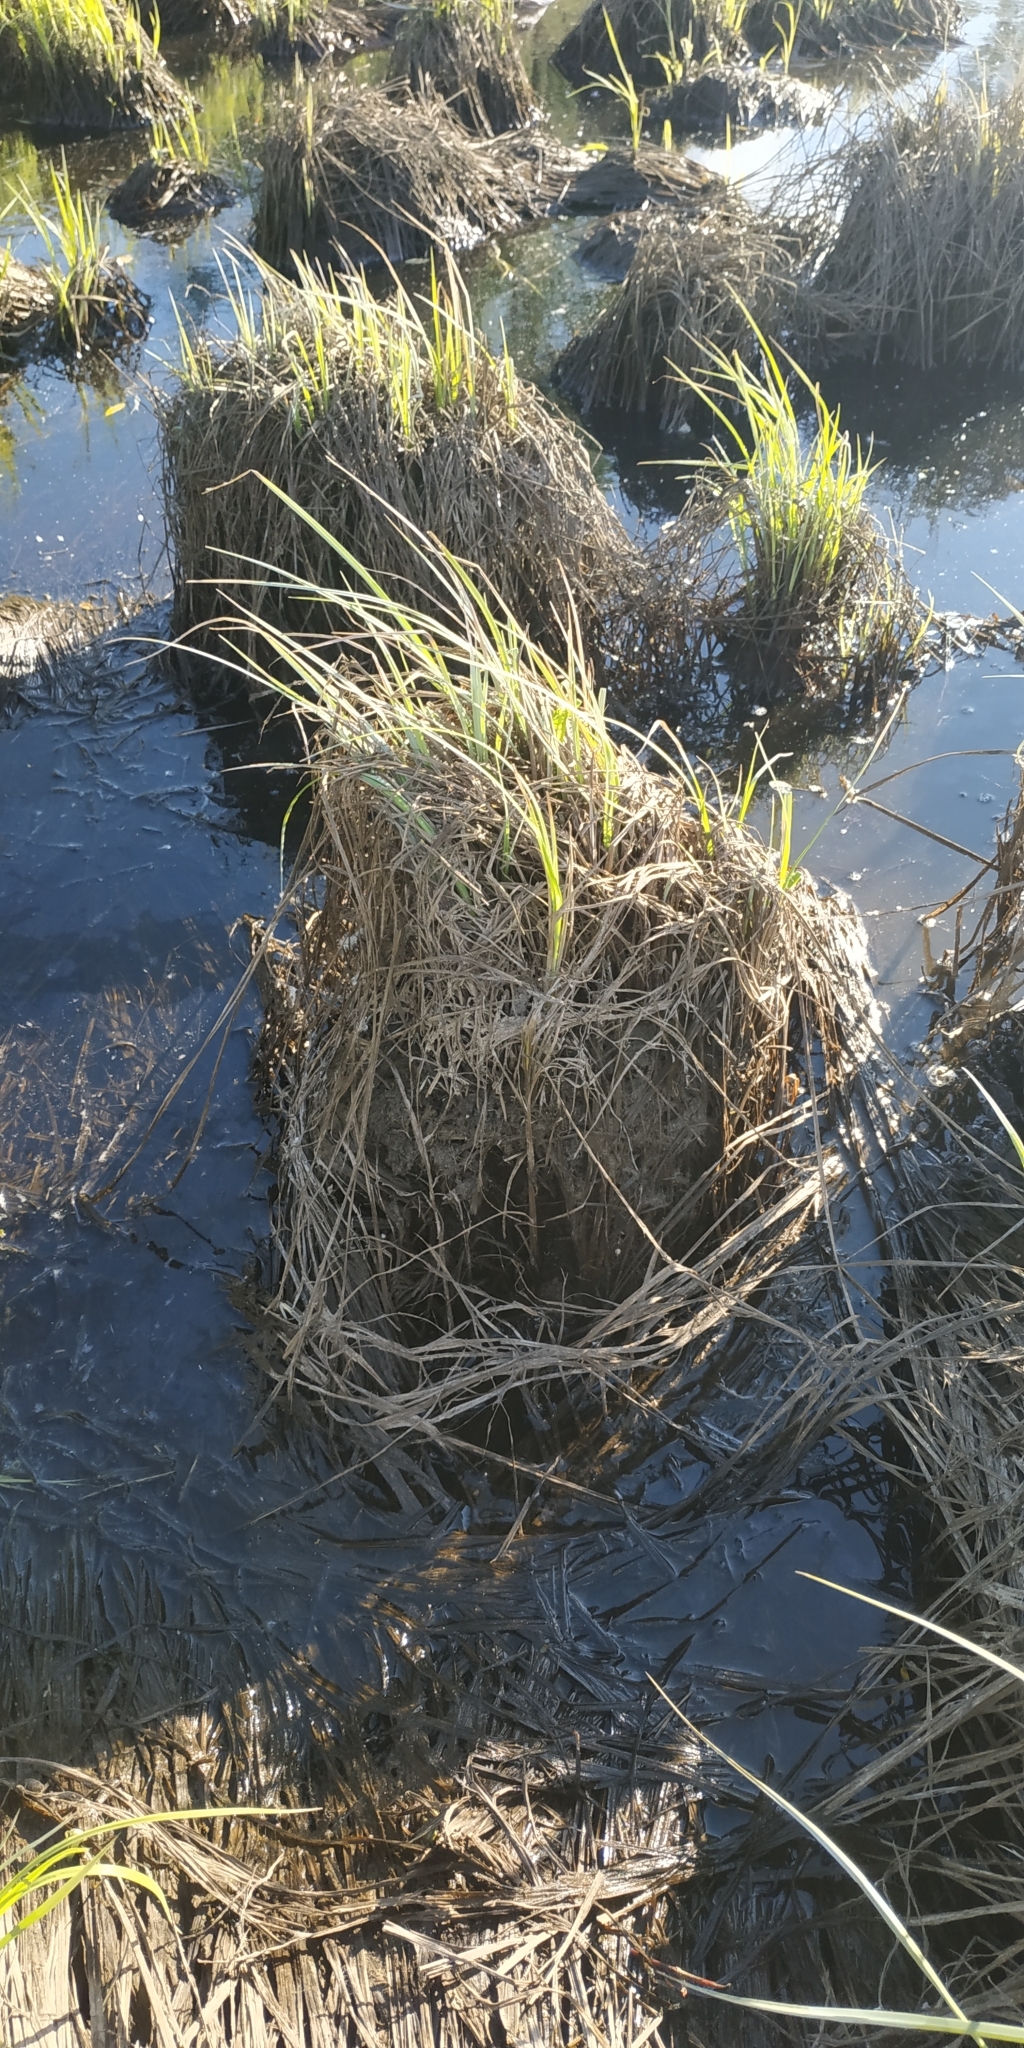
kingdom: Plantae
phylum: Tracheophyta
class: Liliopsida
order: Poales
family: Cyperaceae
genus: Carex
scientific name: Carex acuta
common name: Slender tufted-sedge
